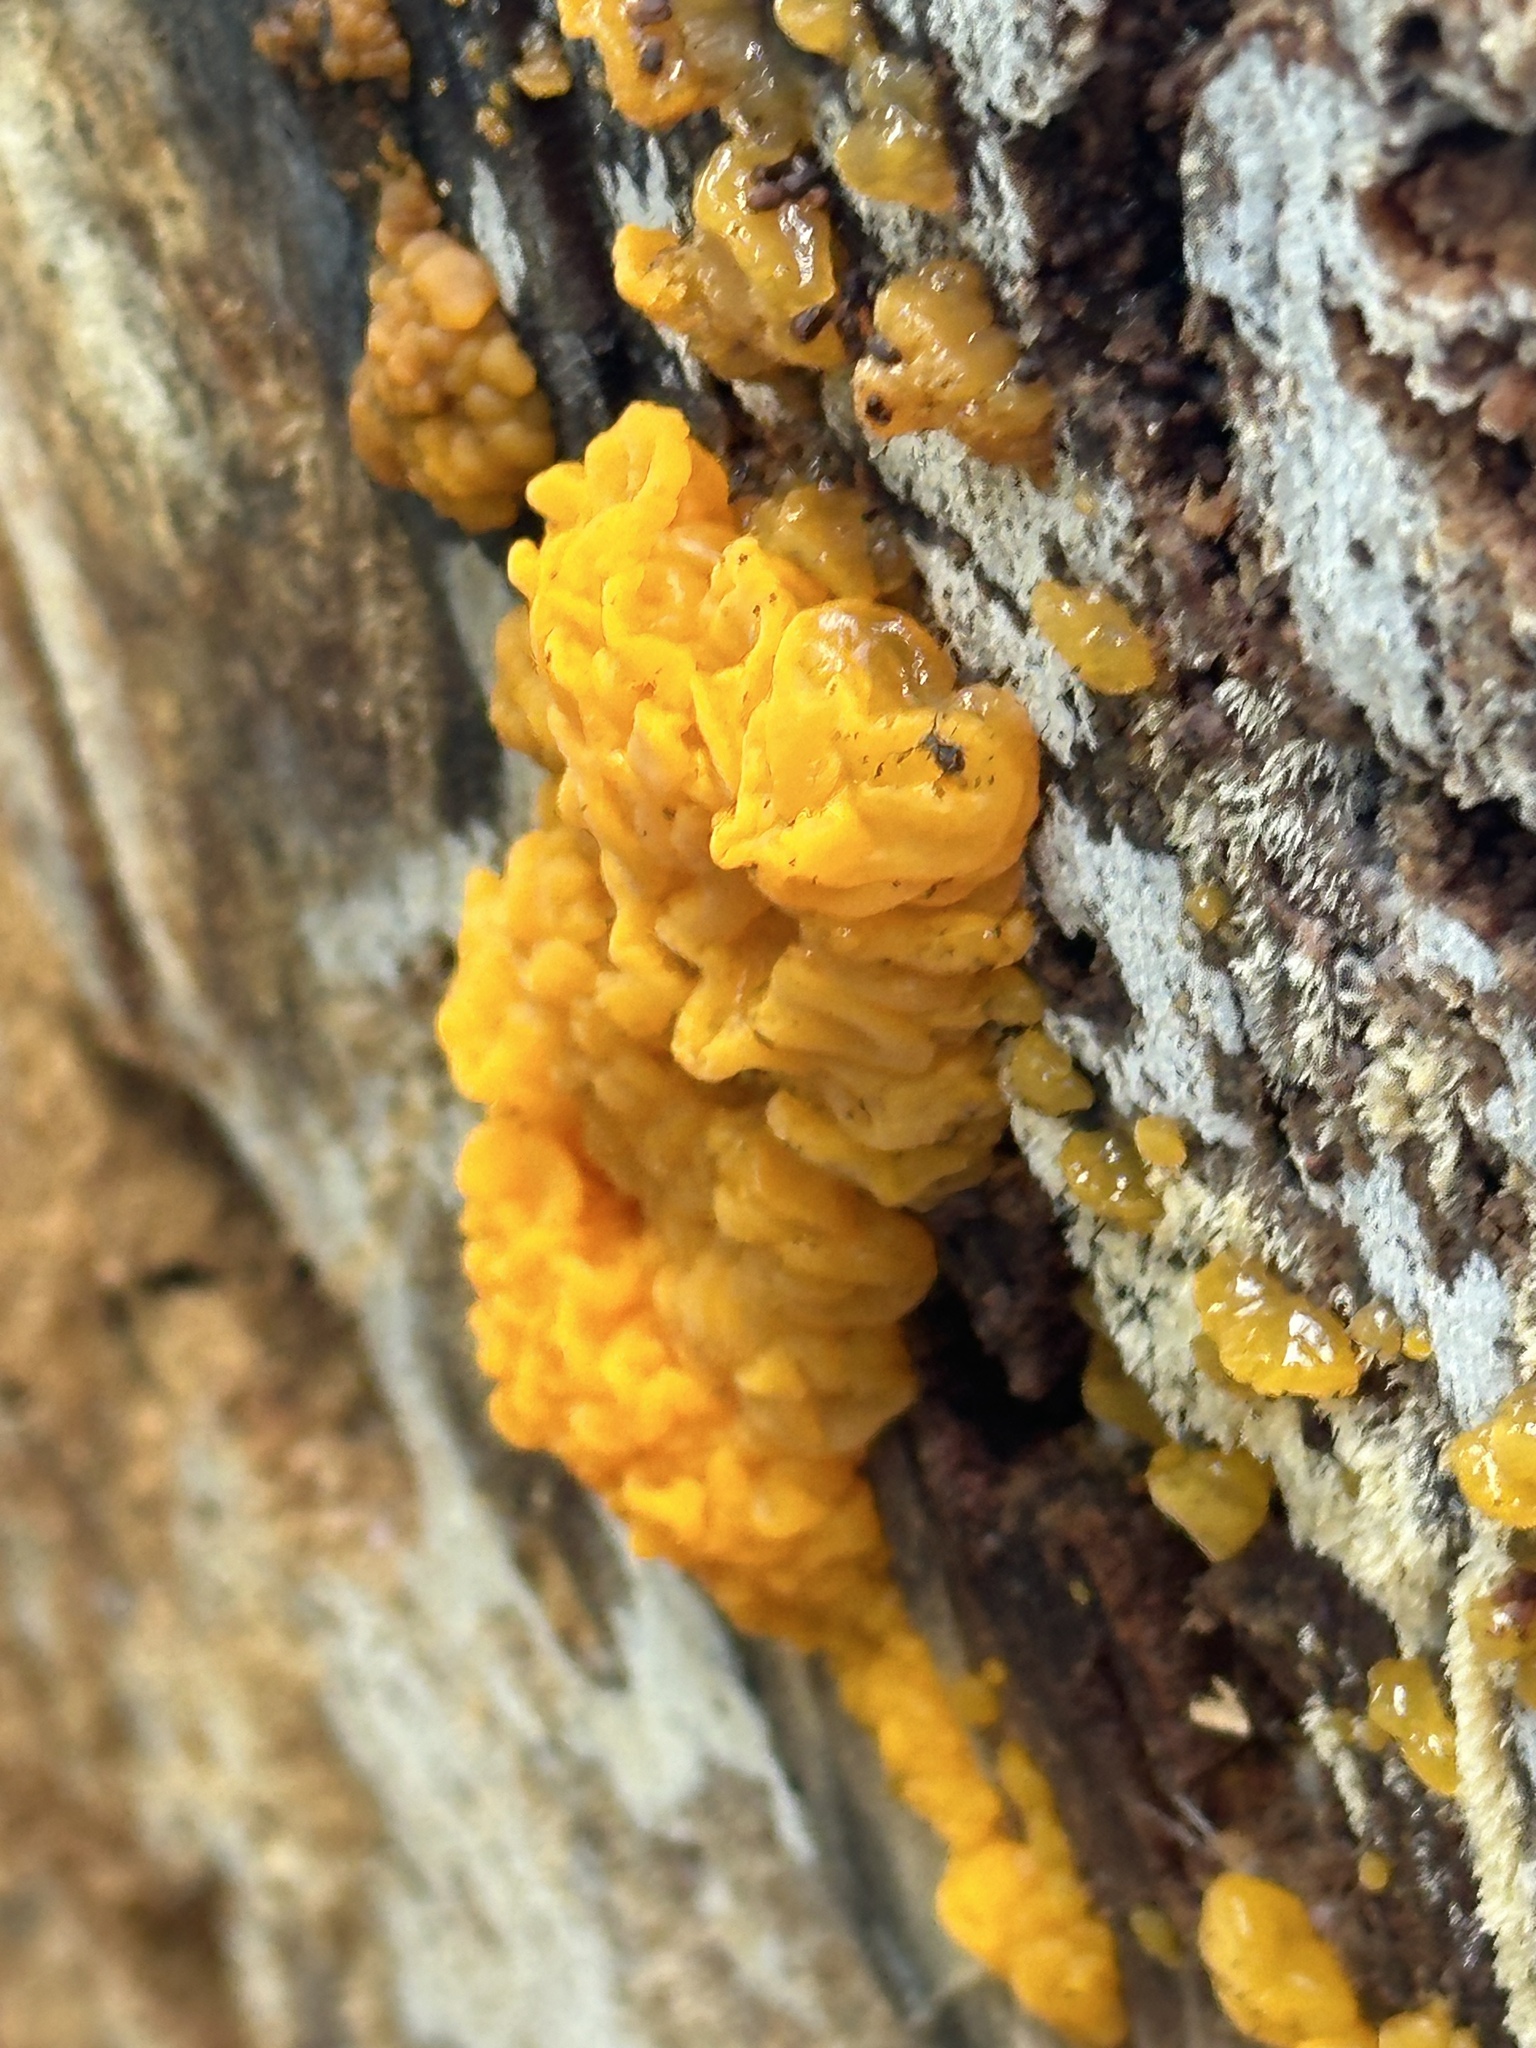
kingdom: Fungi
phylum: Basidiomycota
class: Dacrymycetes
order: Dacrymycetales
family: Dacrymycetaceae
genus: Dacrymyces
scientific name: Dacrymyces chrysospermus
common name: Orange jelly spot
